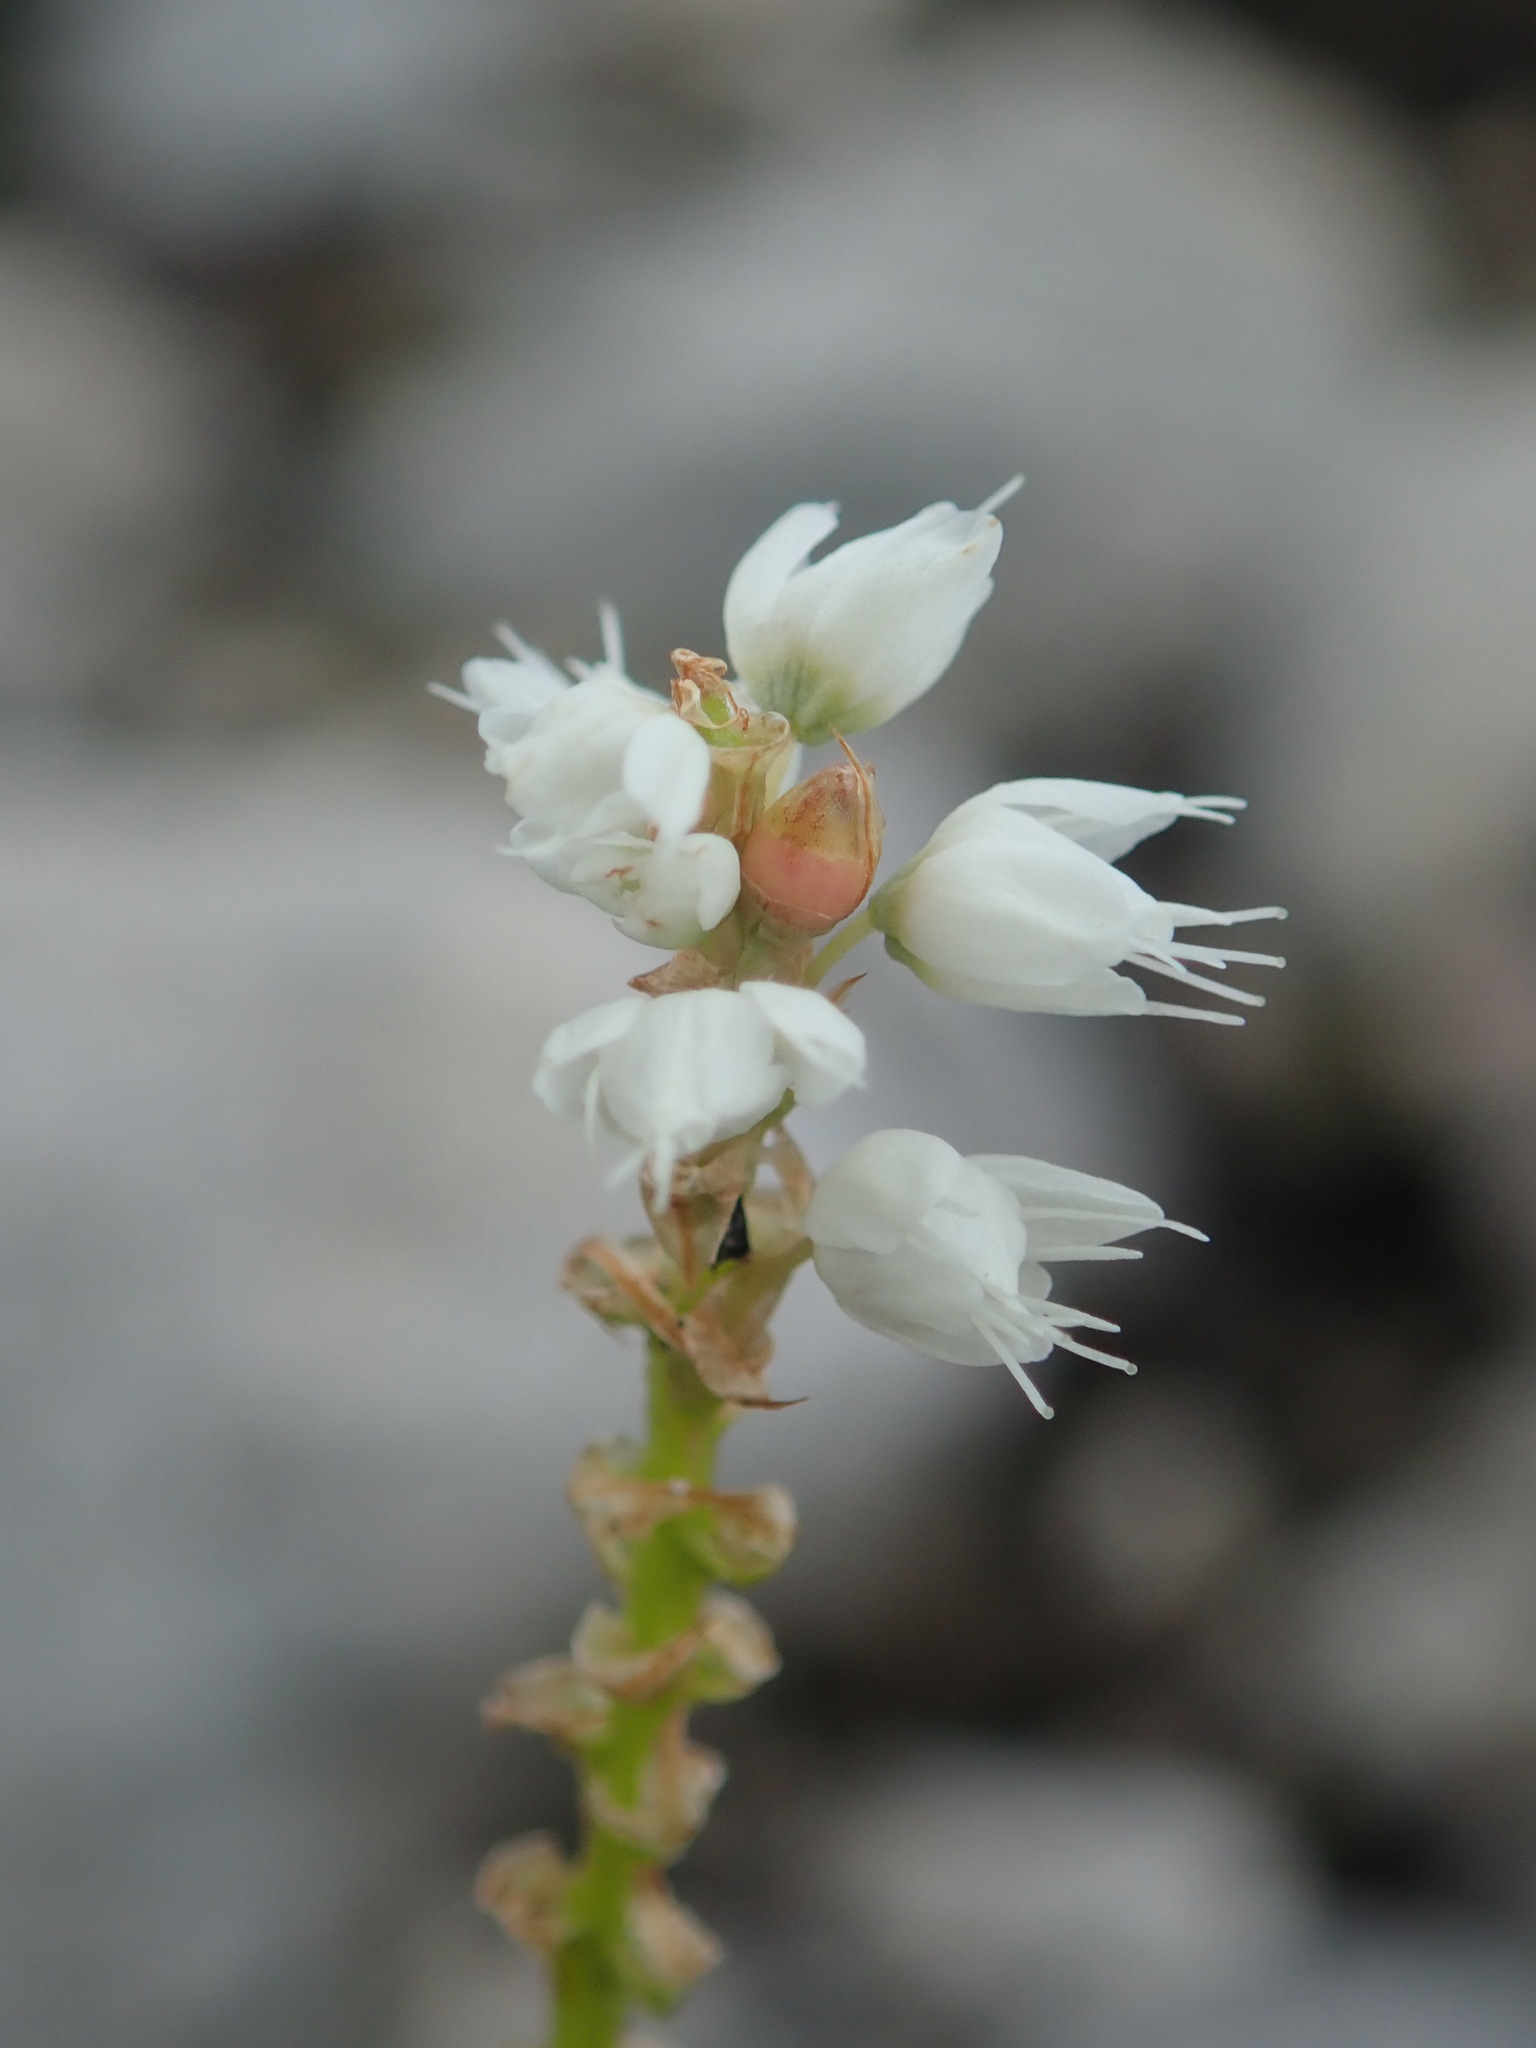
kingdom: Plantae
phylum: Tracheophyta
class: Magnoliopsida
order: Caryophyllales
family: Polygonaceae
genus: Bistorta
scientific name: Bistorta vivipara
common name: Alpine bistort
